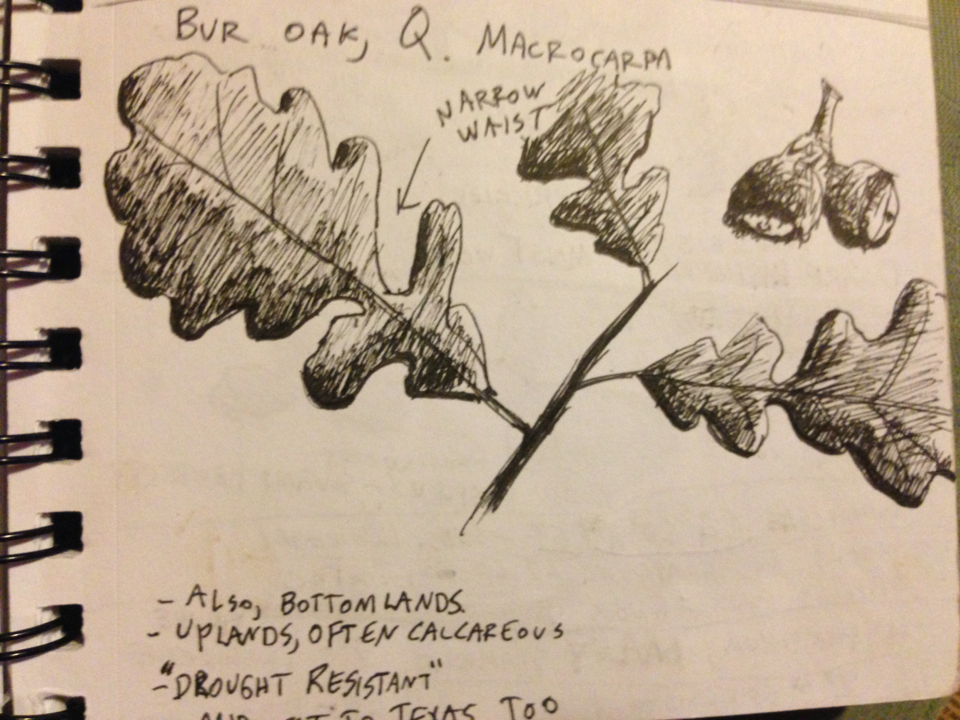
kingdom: Plantae
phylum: Tracheophyta
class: Magnoliopsida
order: Fagales
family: Fagaceae
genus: Quercus
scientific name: Quercus macrocarpa
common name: Bur oak
